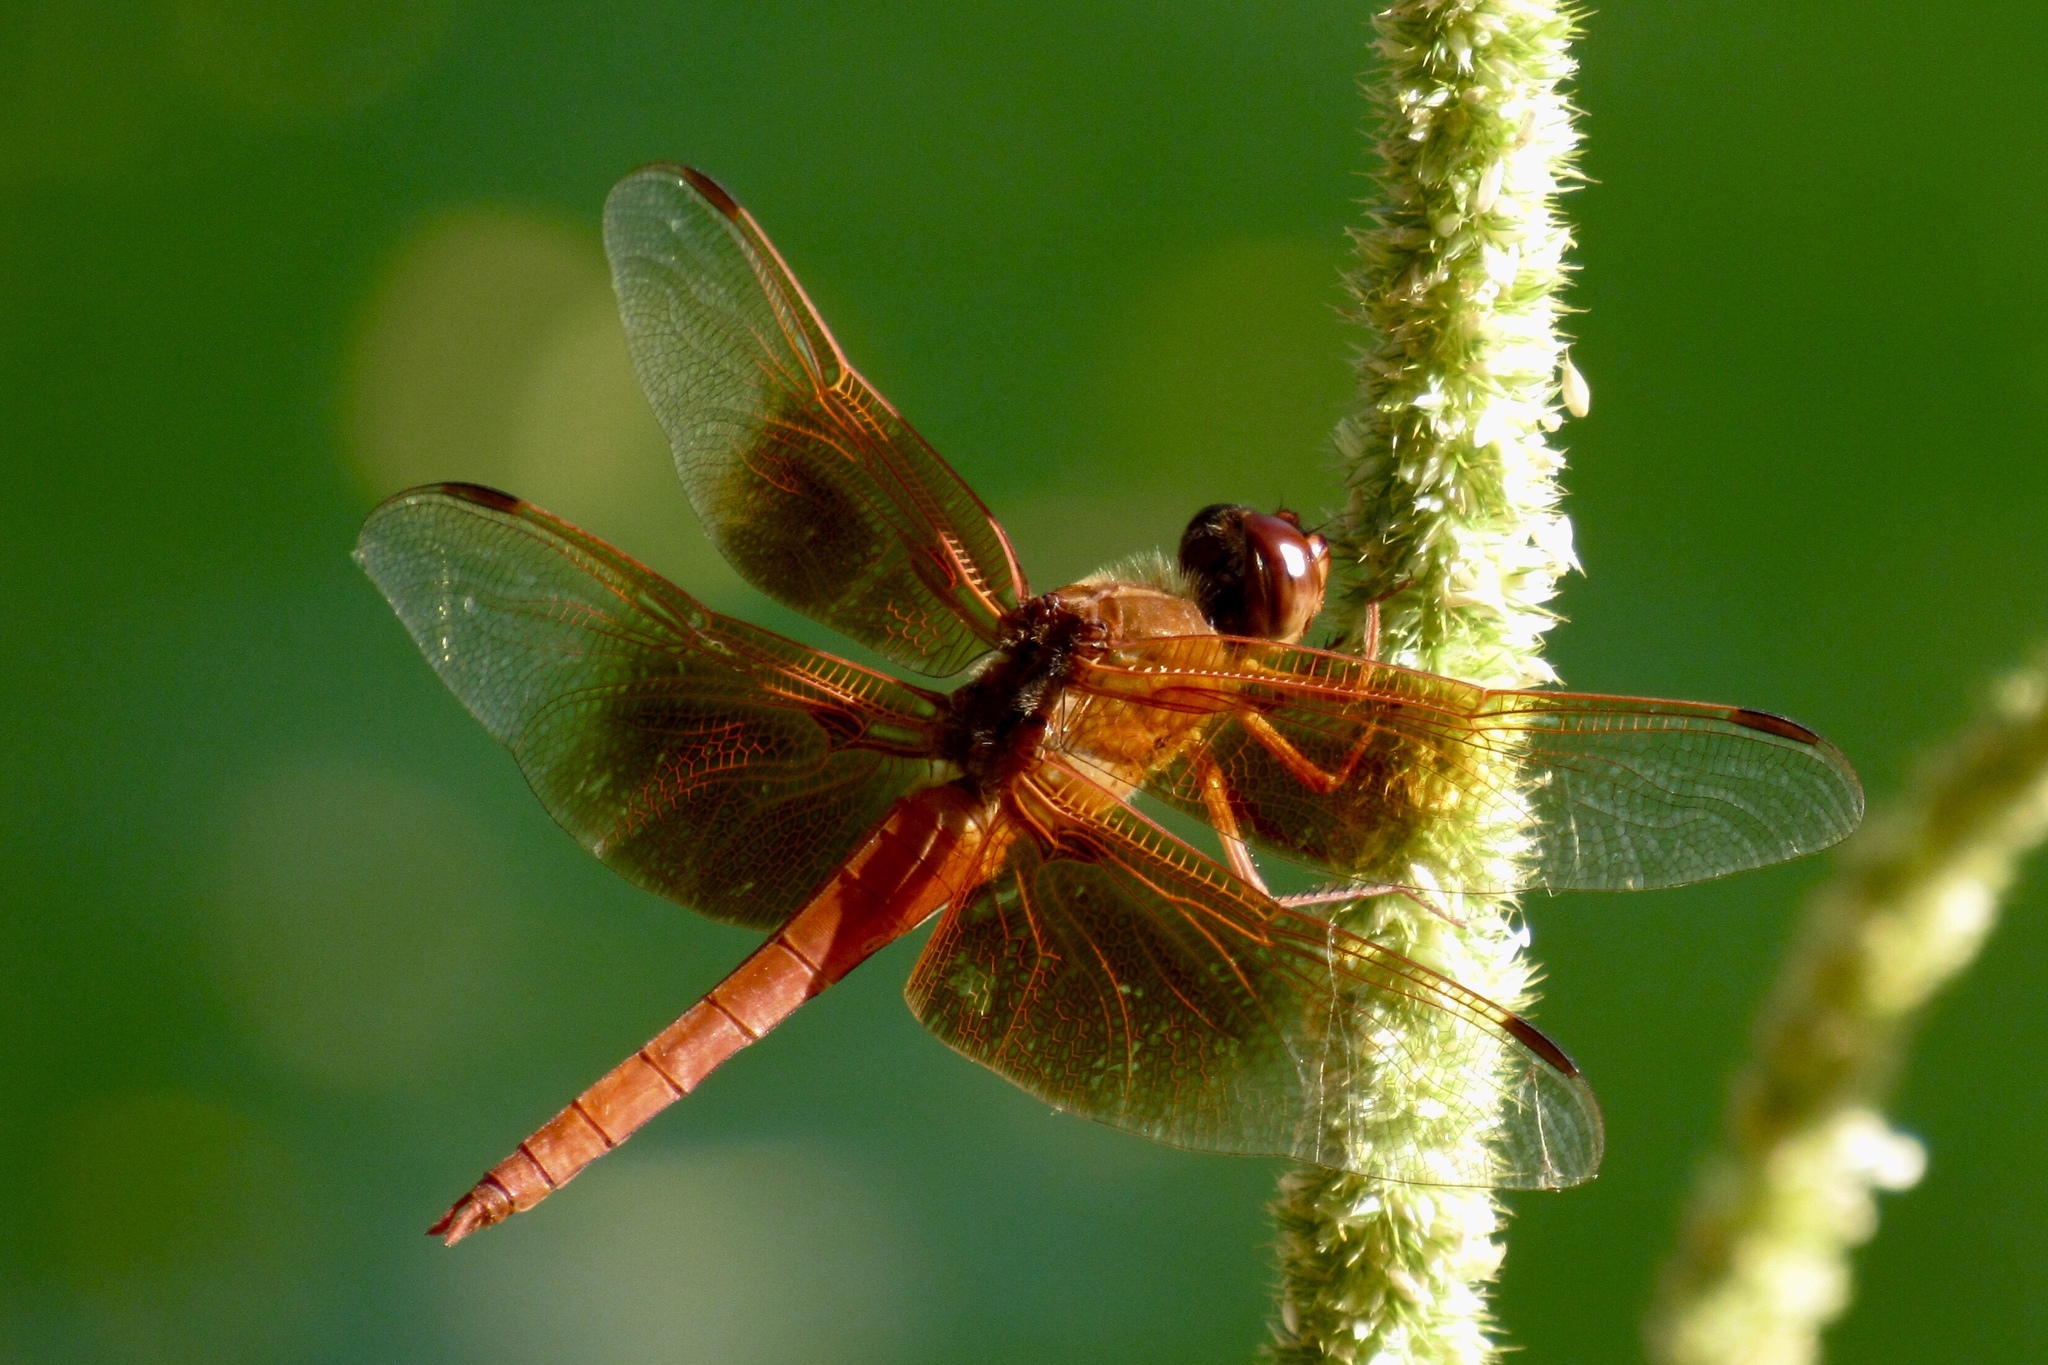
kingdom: Animalia
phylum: Arthropoda
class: Insecta
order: Odonata
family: Libellulidae
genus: Libellula
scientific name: Libellula saturata
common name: Flame skimmer
